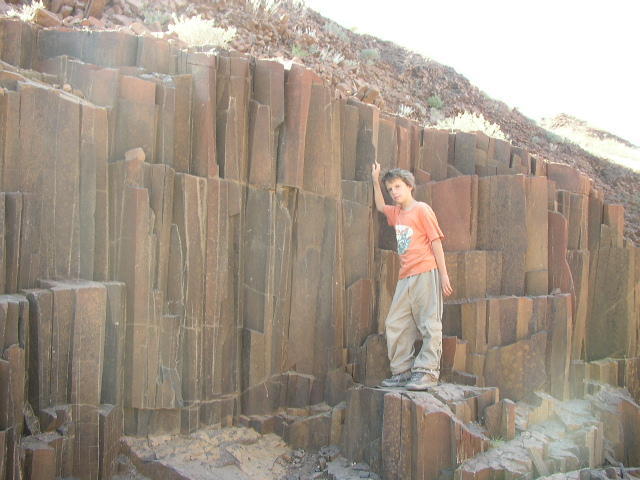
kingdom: Plantae
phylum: Tracheophyta
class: Magnoliopsida
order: Fabales
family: Fabaceae
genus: Senegalia
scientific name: Senegalia robynsiana
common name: Whip stick acacia
